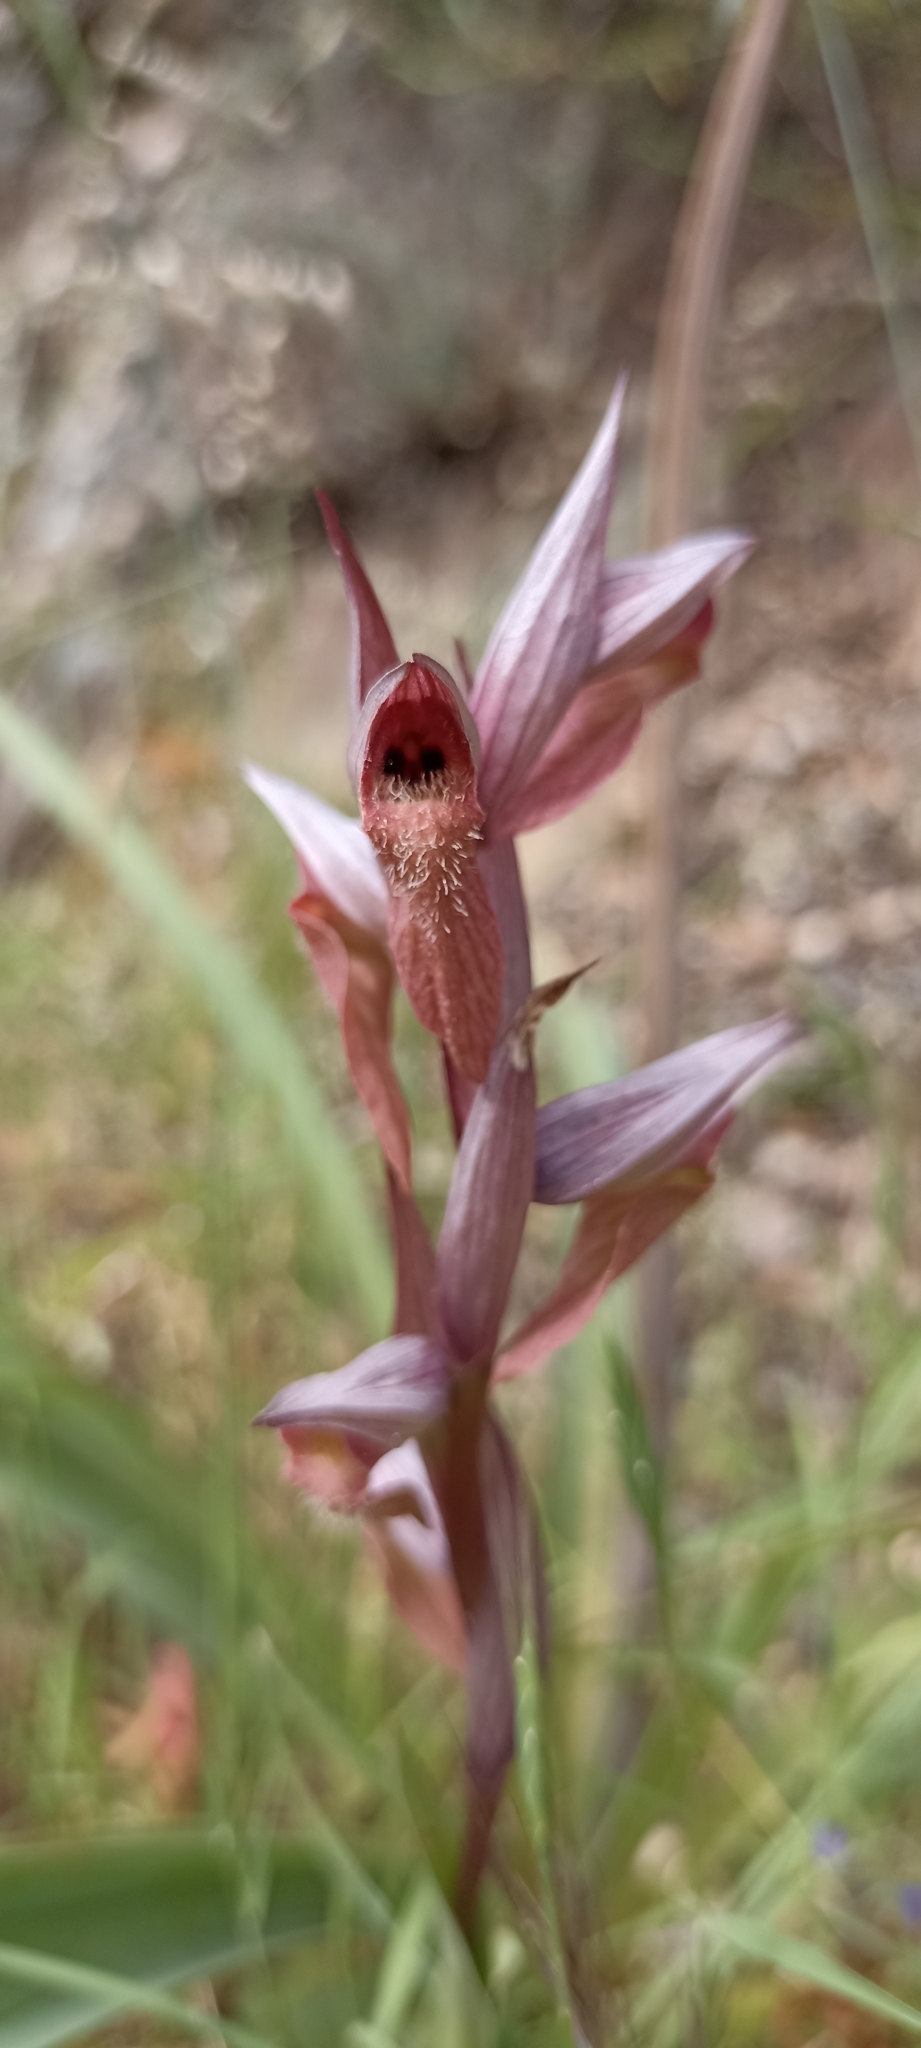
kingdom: Plantae
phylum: Tracheophyta
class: Liliopsida
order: Asparagales
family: Orchidaceae
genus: Serapias
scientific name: Serapias vomeracea
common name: Long-lipped tongue-orchid
